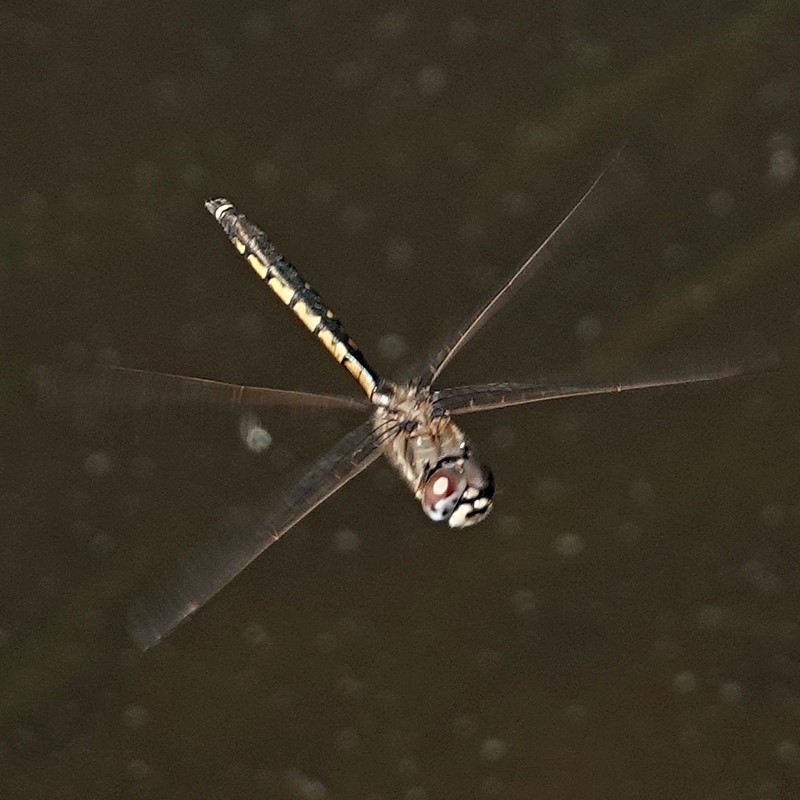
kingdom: Animalia
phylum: Arthropoda
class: Insecta
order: Odonata
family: Corduliidae
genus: Hemicordulia
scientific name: Hemicordulia tau
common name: Tau emerald
